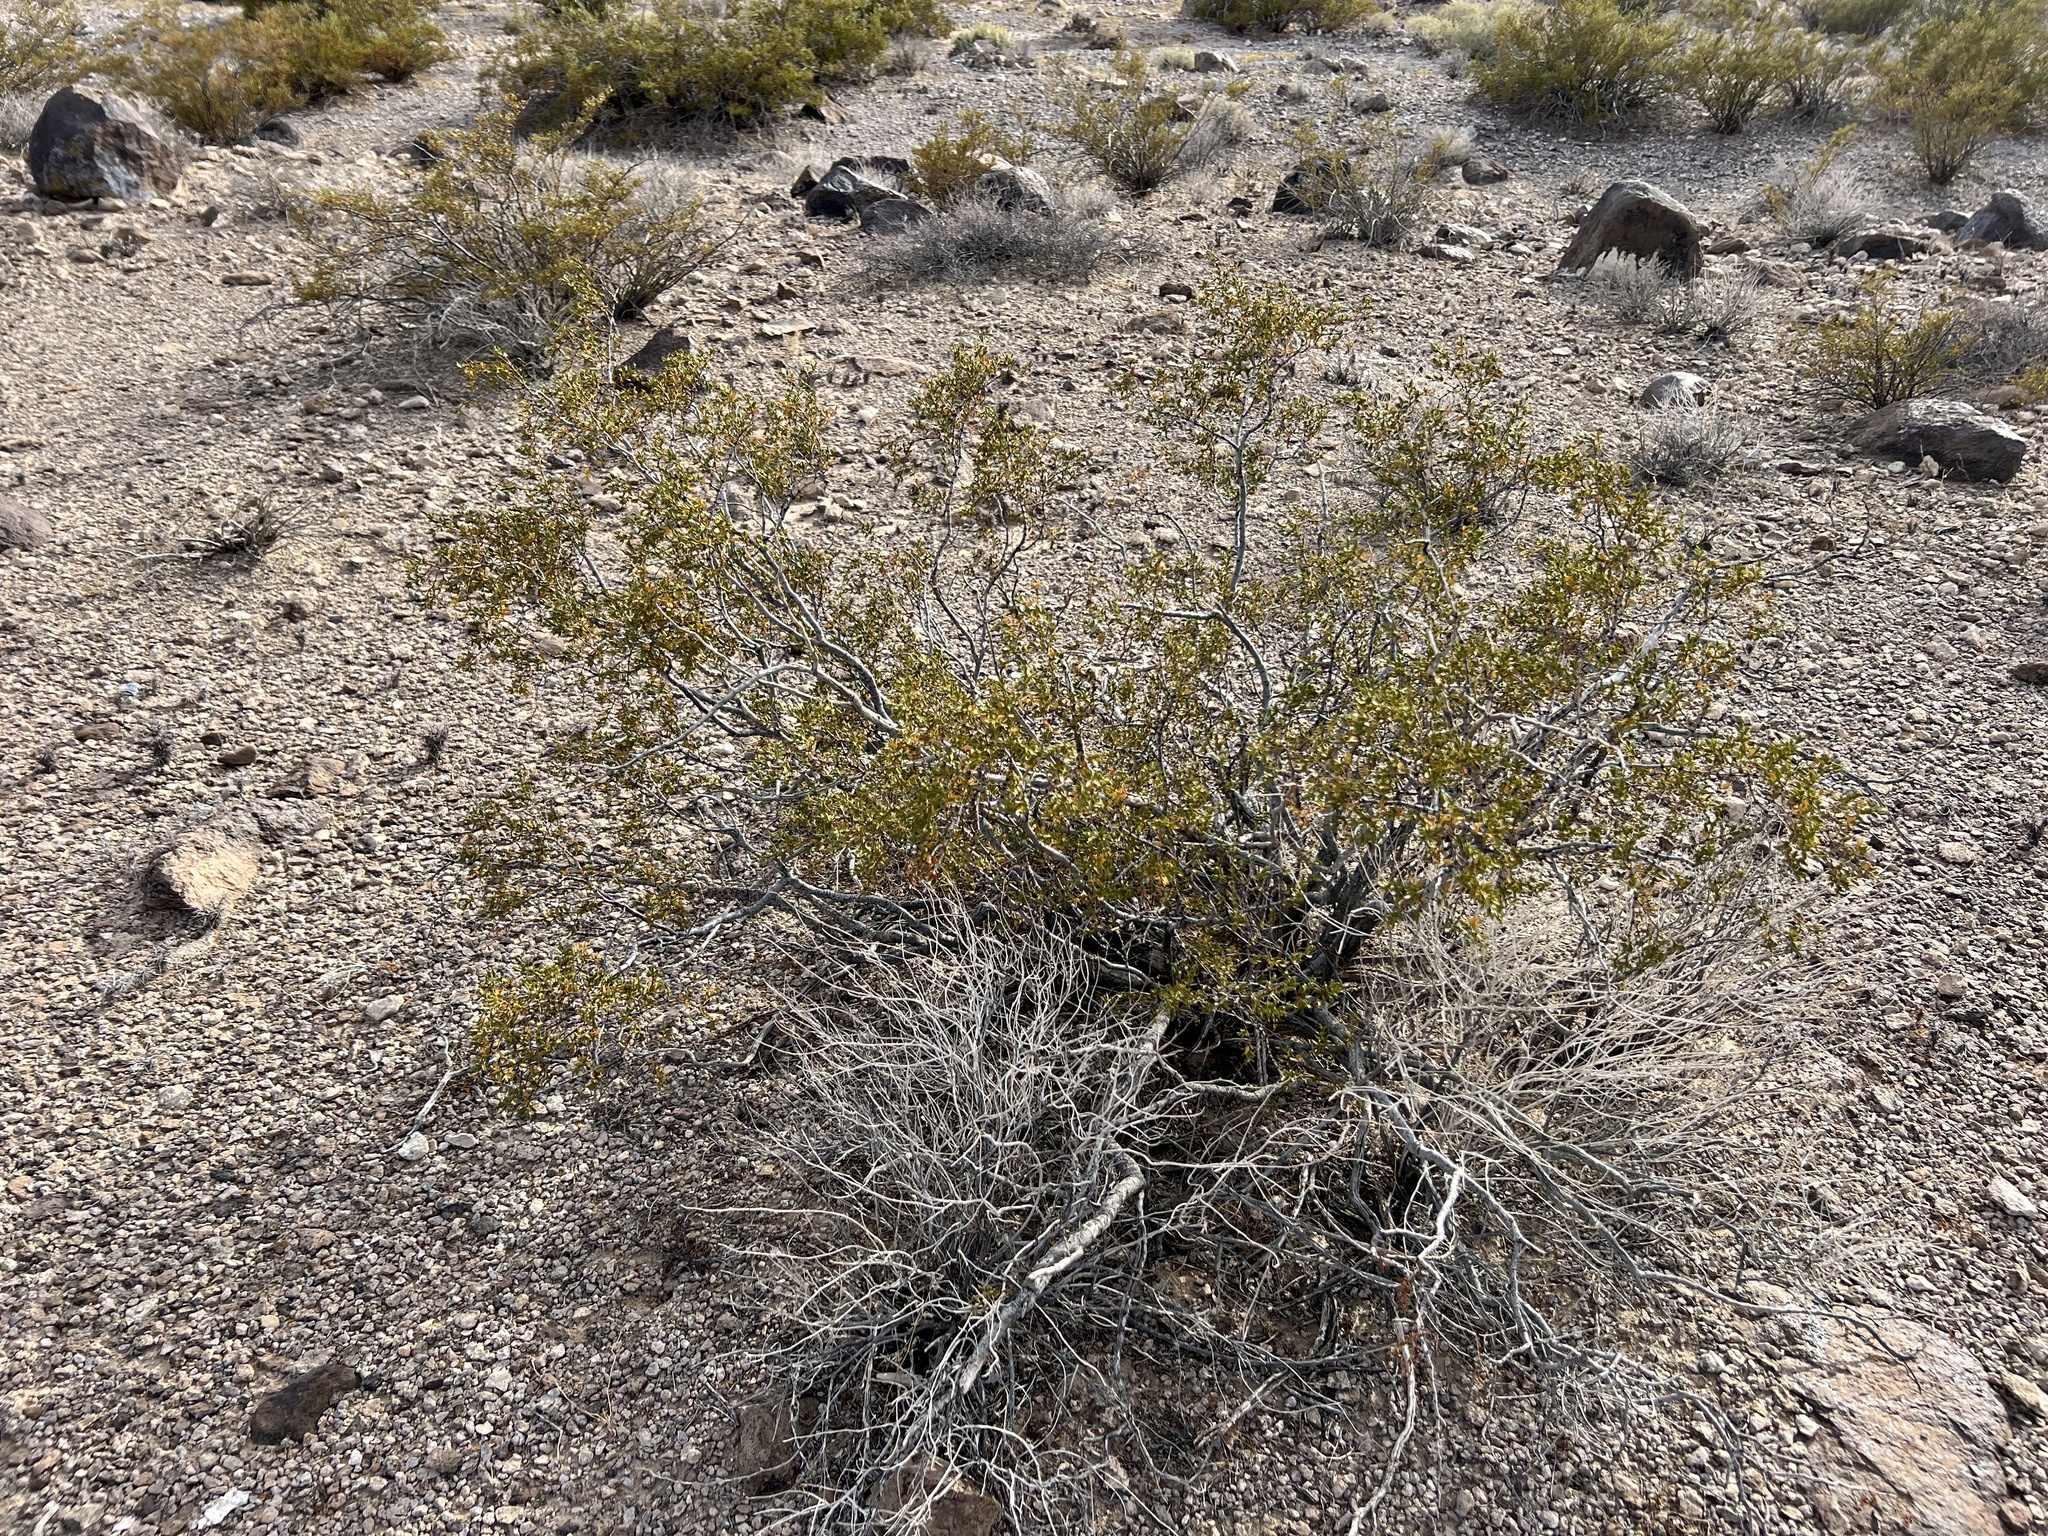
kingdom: Plantae
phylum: Tracheophyta
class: Magnoliopsida
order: Zygophyllales
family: Zygophyllaceae
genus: Larrea
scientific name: Larrea tridentata
